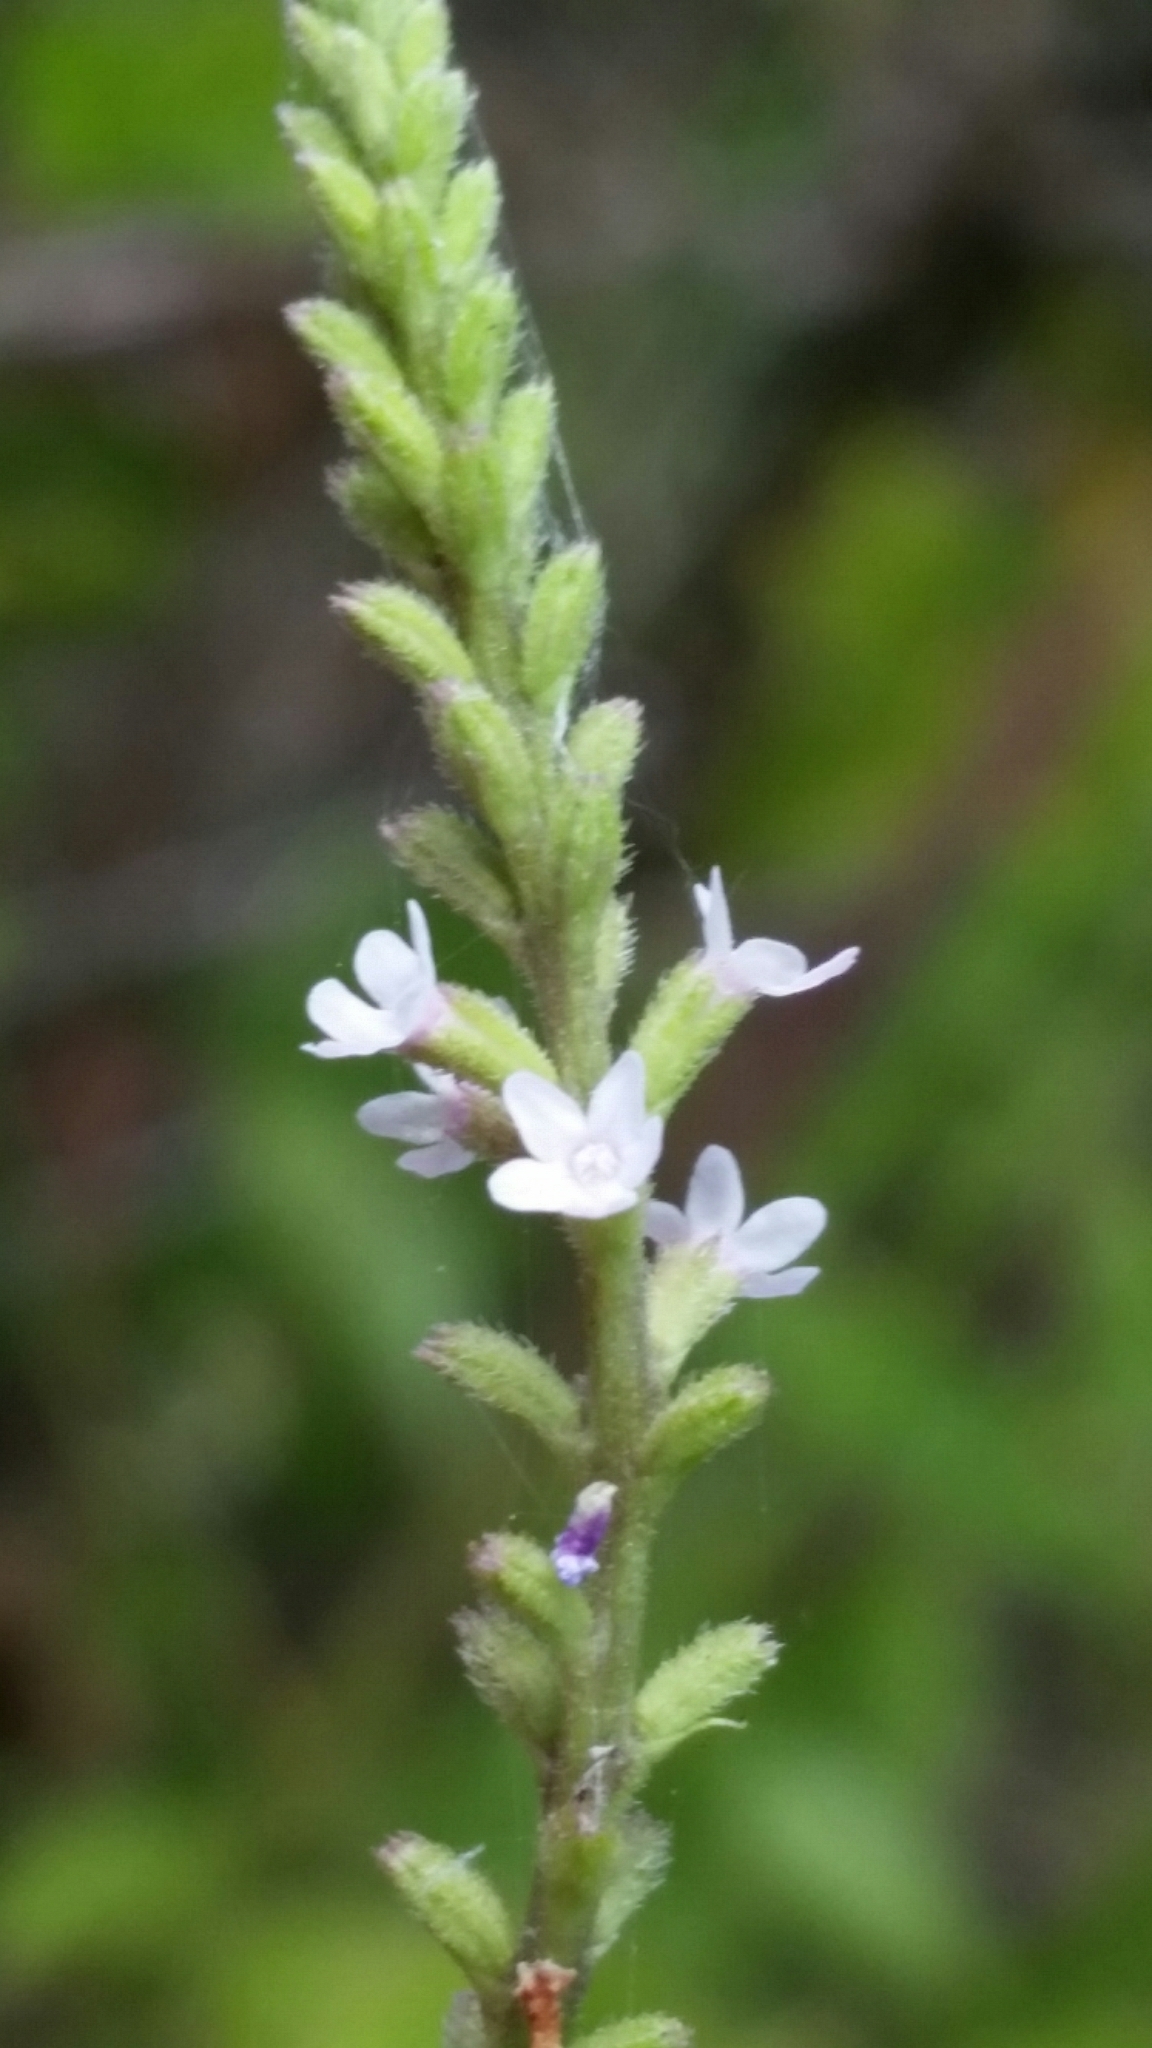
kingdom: Plantae
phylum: Tracheophyta
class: Magnoliopsida
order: Lamiales
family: Verbenaceae
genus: Verbena
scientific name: Verbena scabra
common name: Sandpaper vervain
